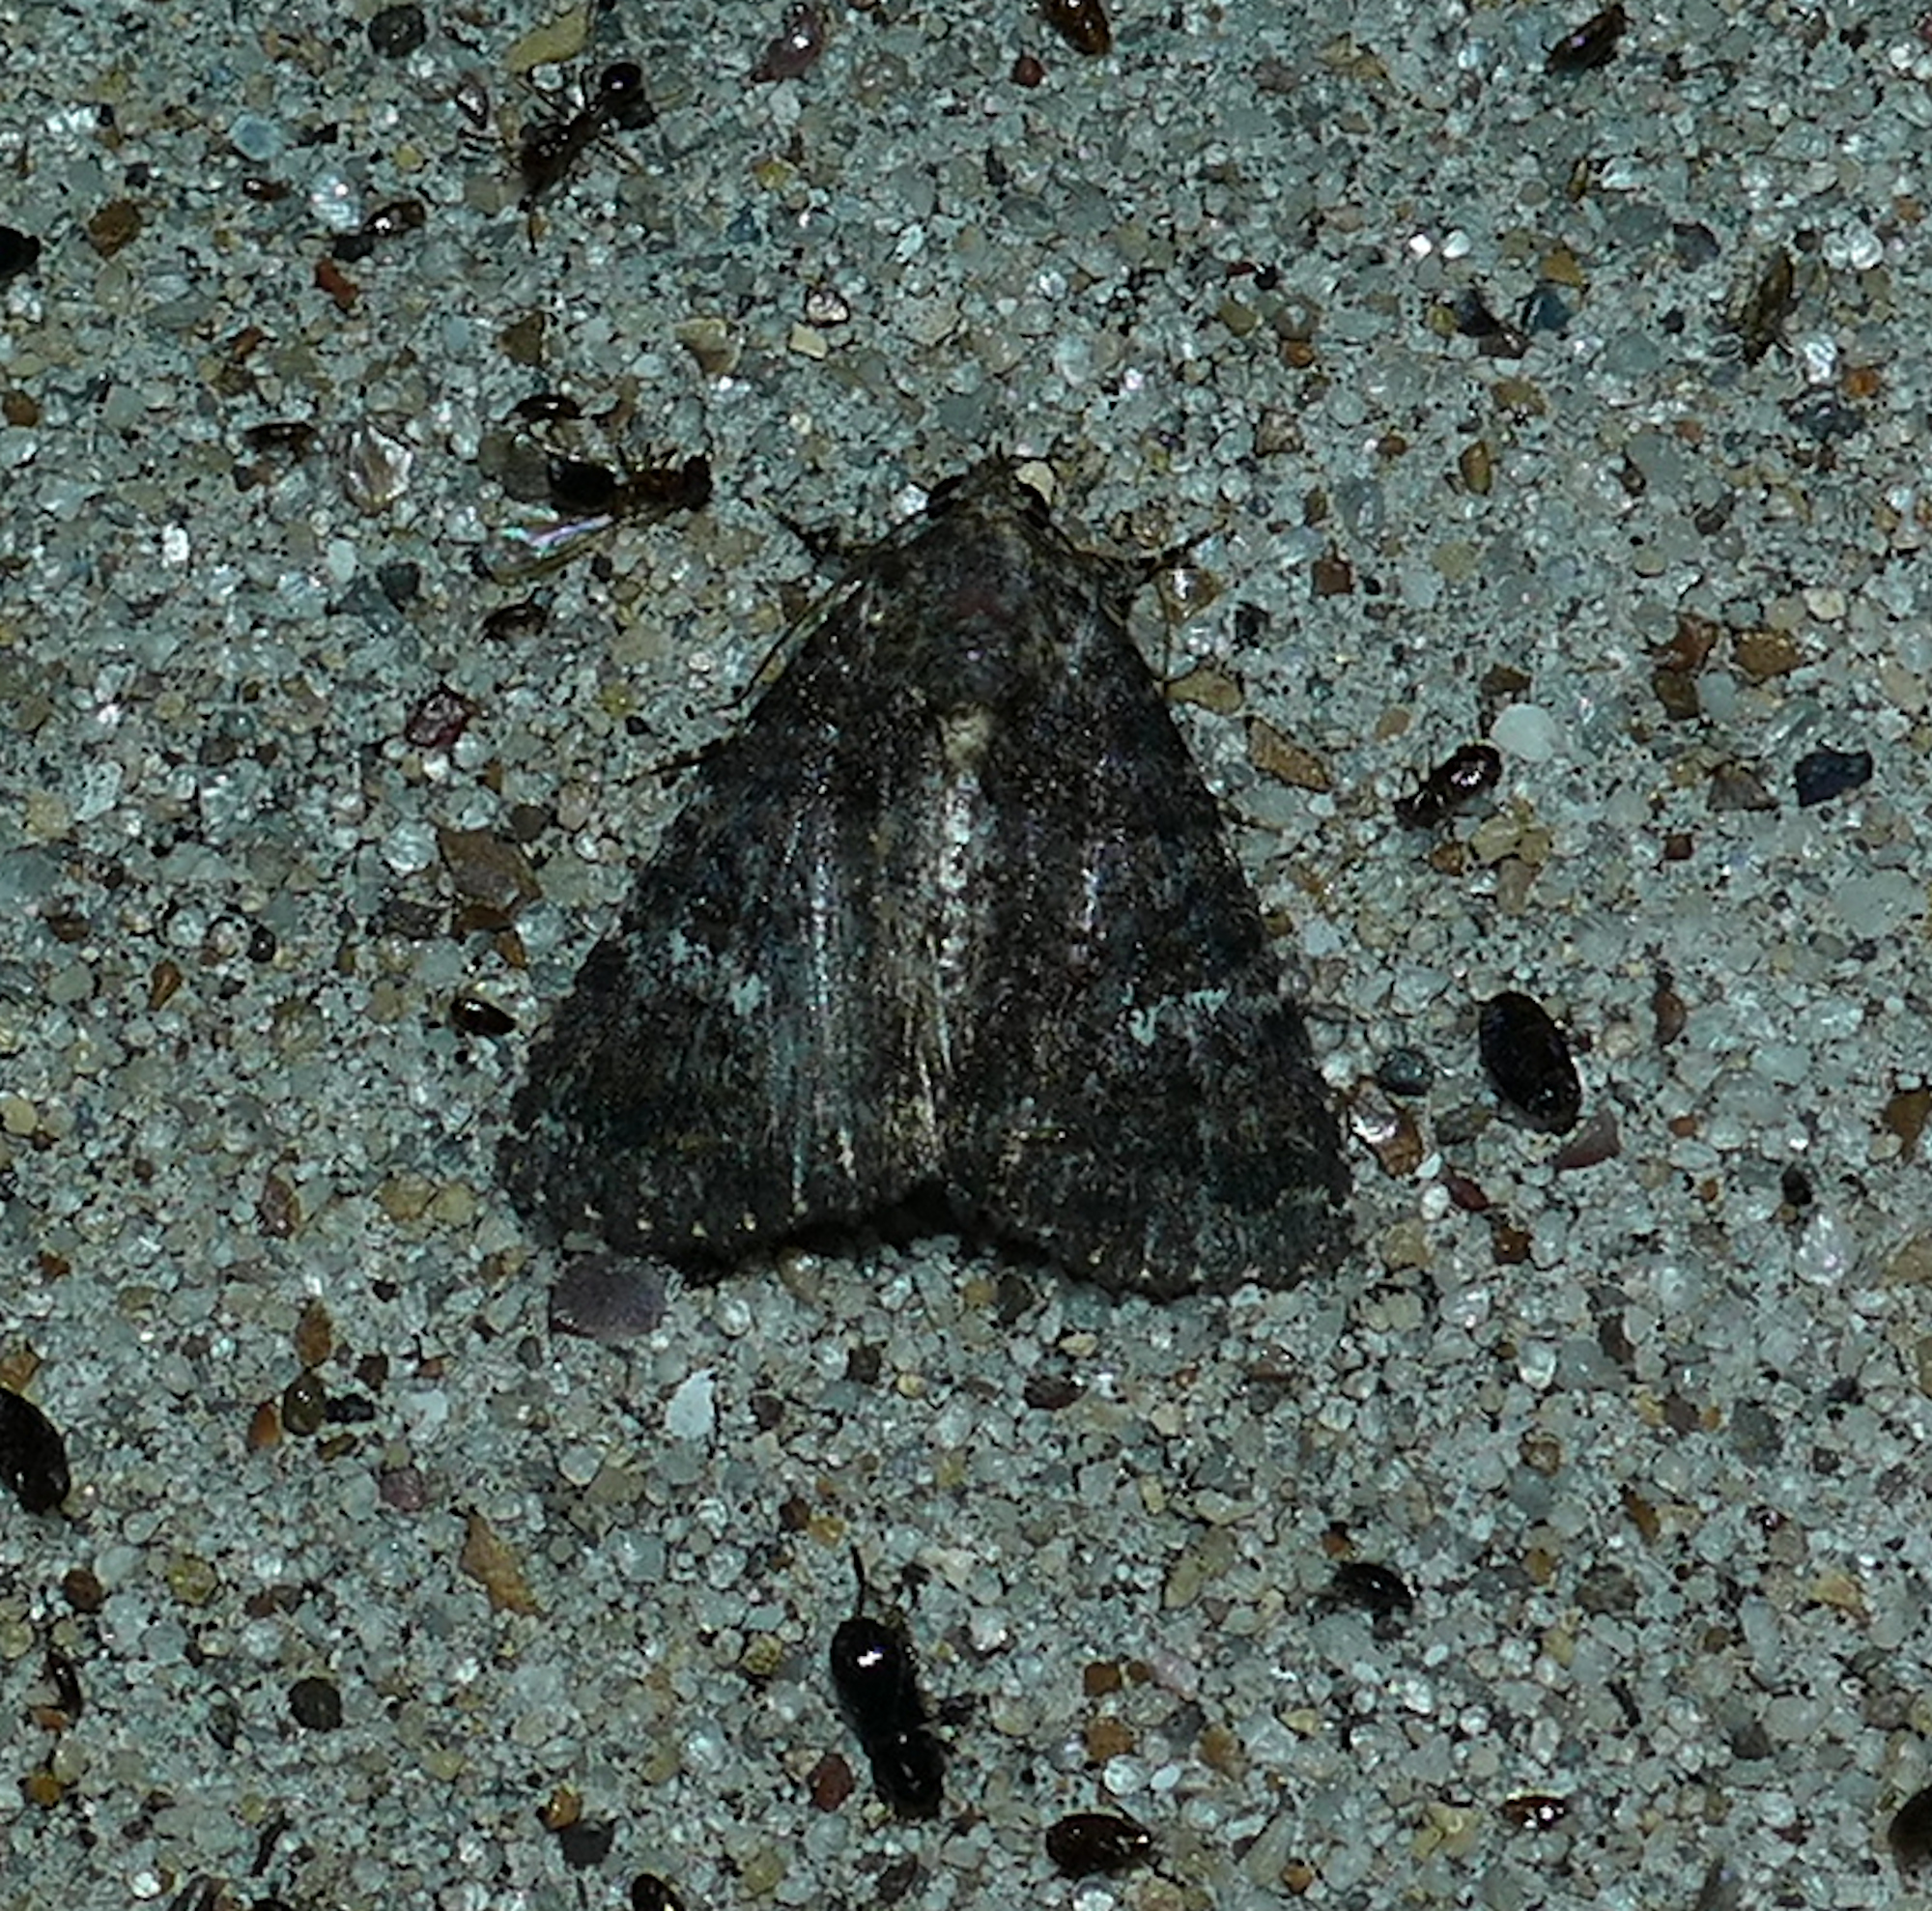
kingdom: Animalia
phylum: Arthropoda
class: Insecta
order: Lepidoptera
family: Erebidae
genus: Coxina
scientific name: Coxina cinctipalpis
